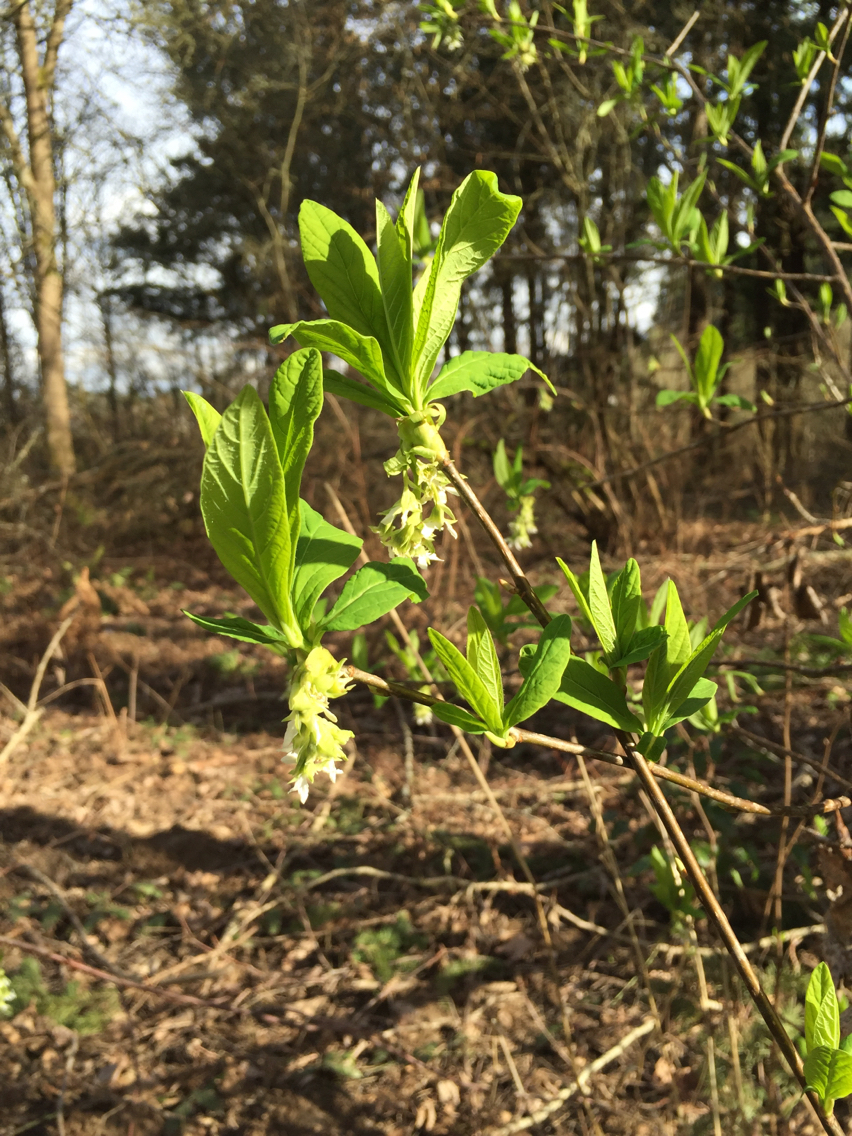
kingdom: Plantae
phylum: Tracheophyta
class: Magnoliopsida
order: Rosales
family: Rosaceae
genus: Oemleria
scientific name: Oemleria cerasiformis
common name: Osoberry
